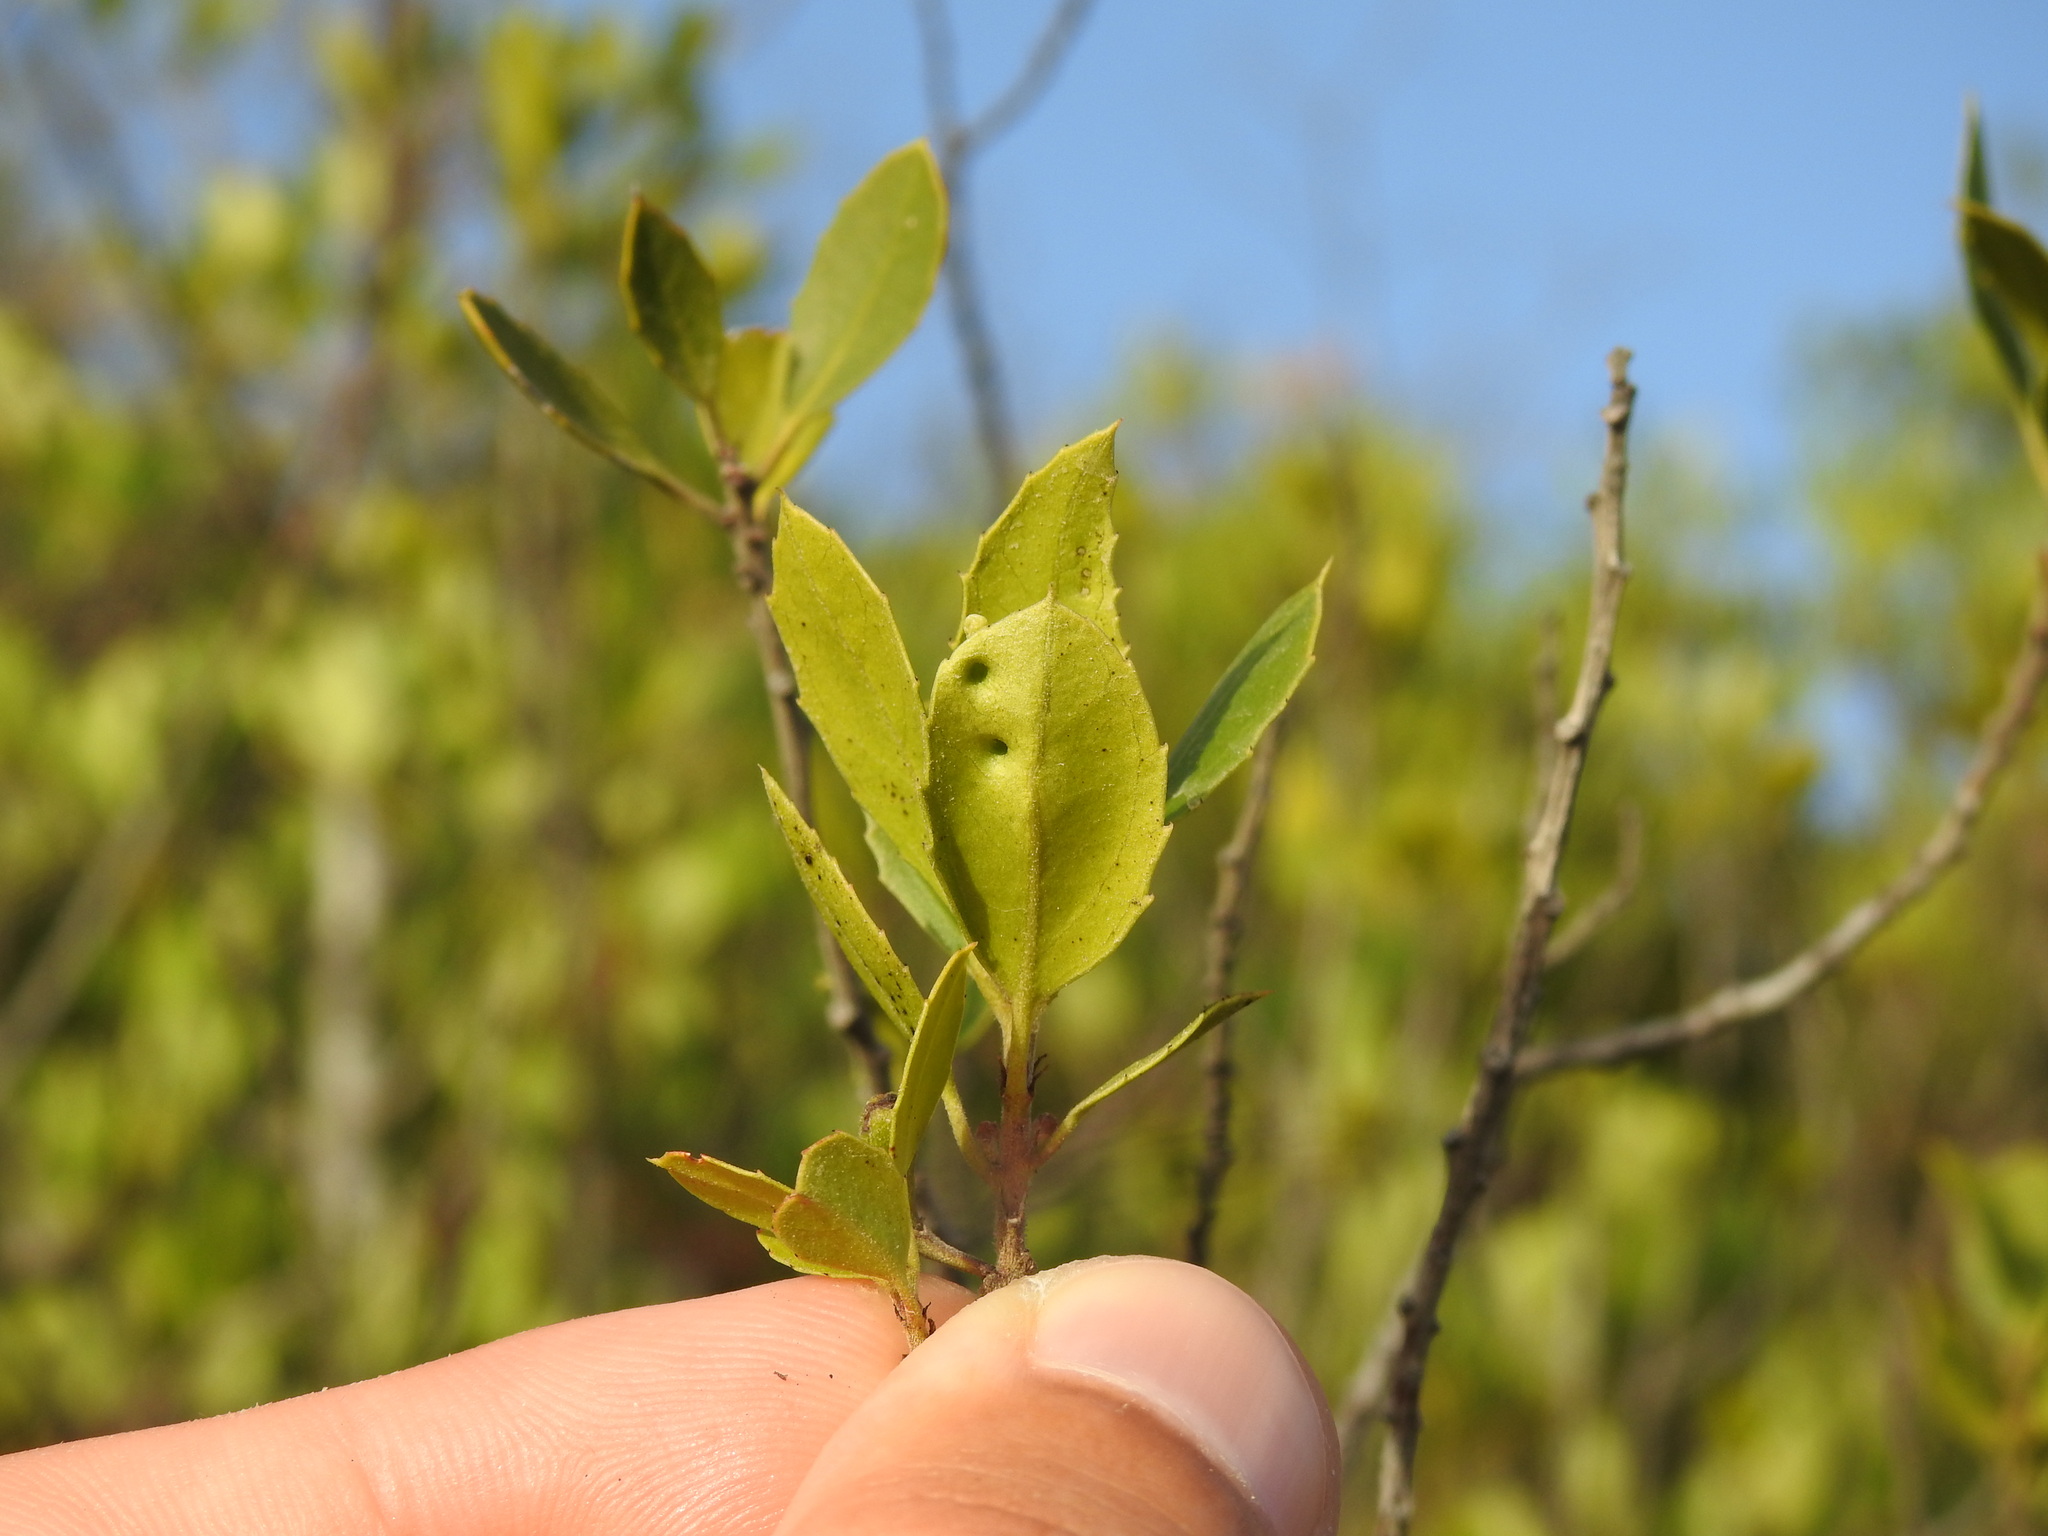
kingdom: Animalia
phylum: Arthropoda
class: Insecta
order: Hemiptera
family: Triozidae
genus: Trioza
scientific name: Trioza kiefferi
